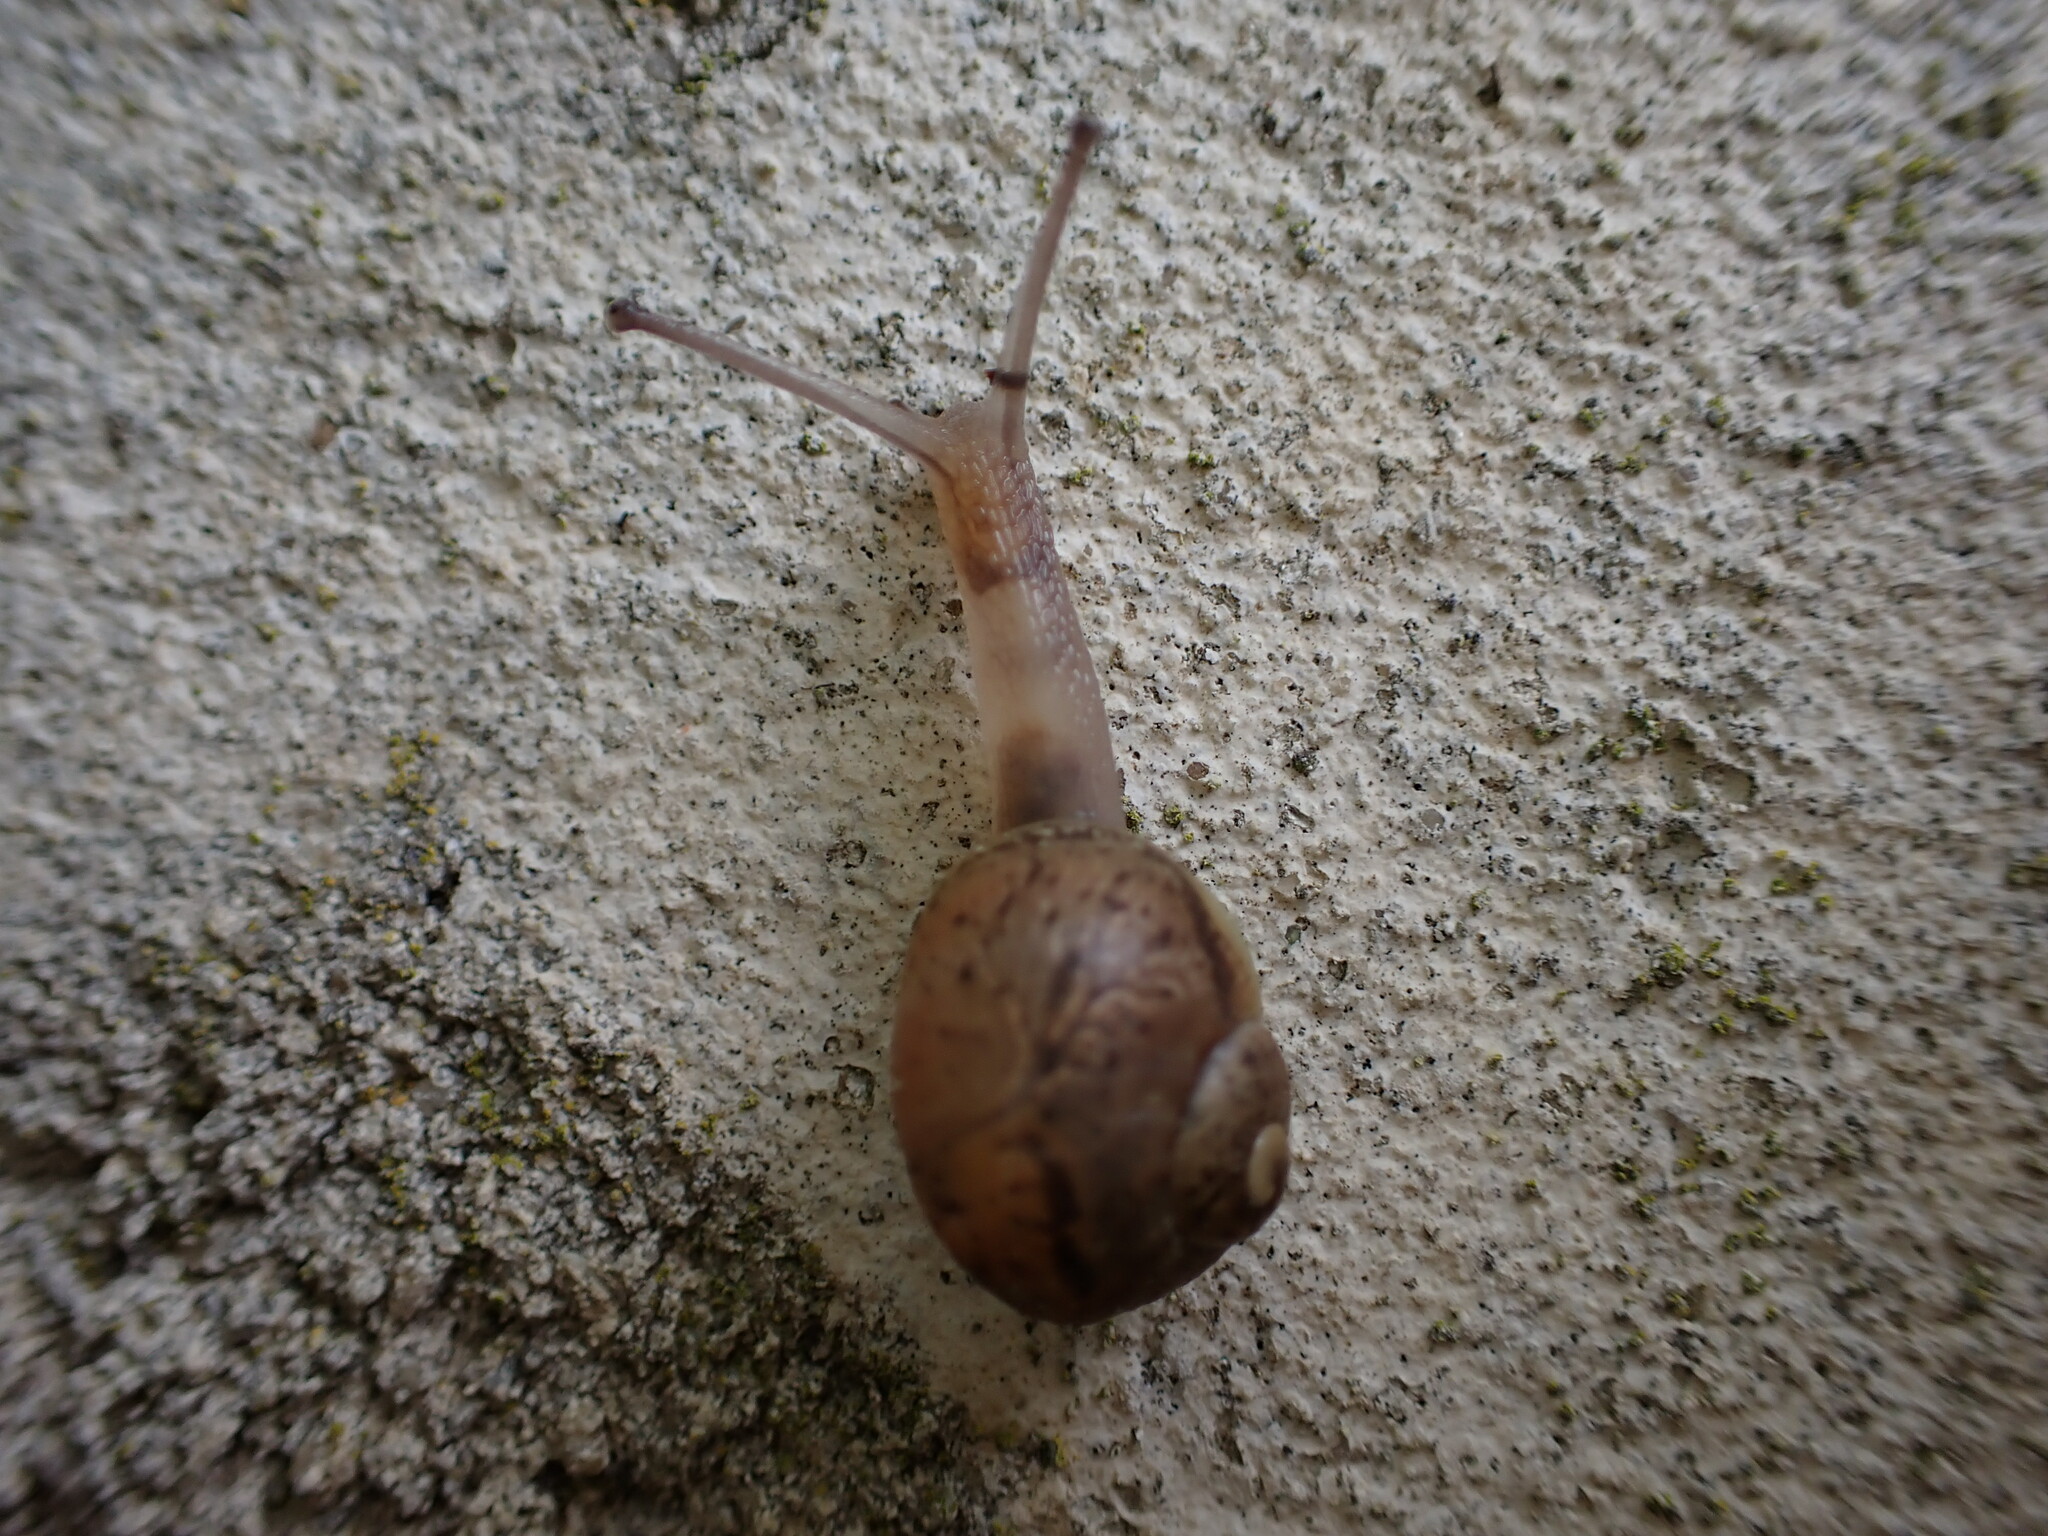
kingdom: Animalia
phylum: Mollusca
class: Gastropoda
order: Stylommatophora
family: Helicidae
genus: Cornu
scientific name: Cornu aspersum
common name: Brown garden snail
